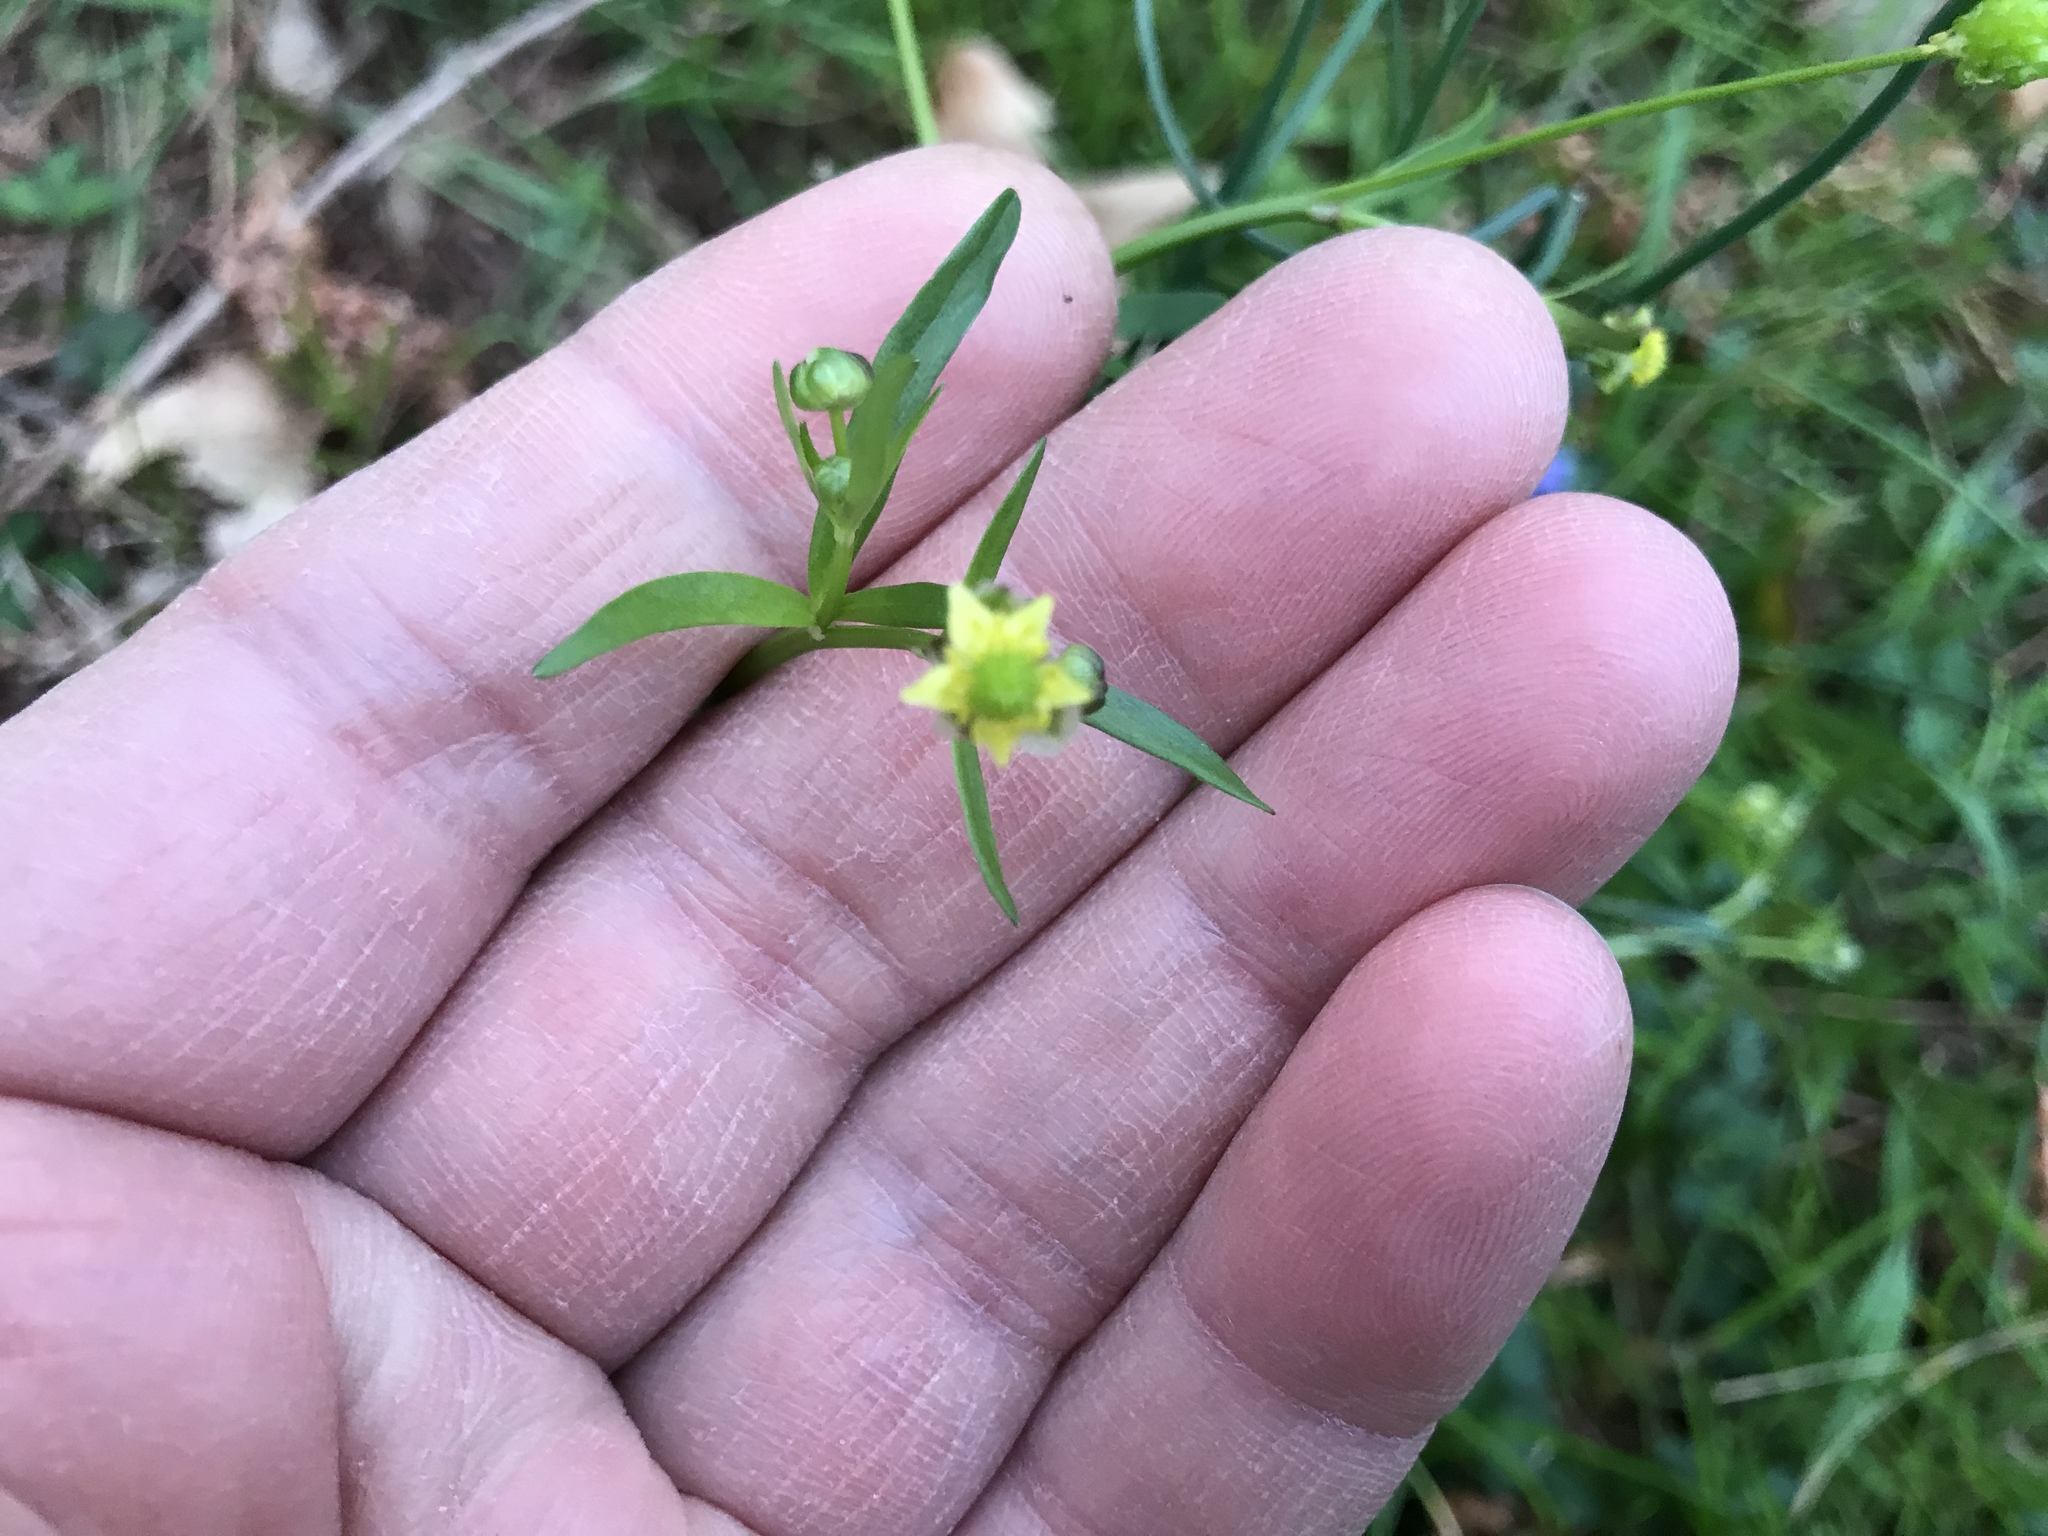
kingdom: Plantae
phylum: Tracheophyta
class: Magnoliopsida
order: Ranunculales
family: Ranunculaceae
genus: Ranunculus
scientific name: Ranunculus abortivus
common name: Early wood buttercup
